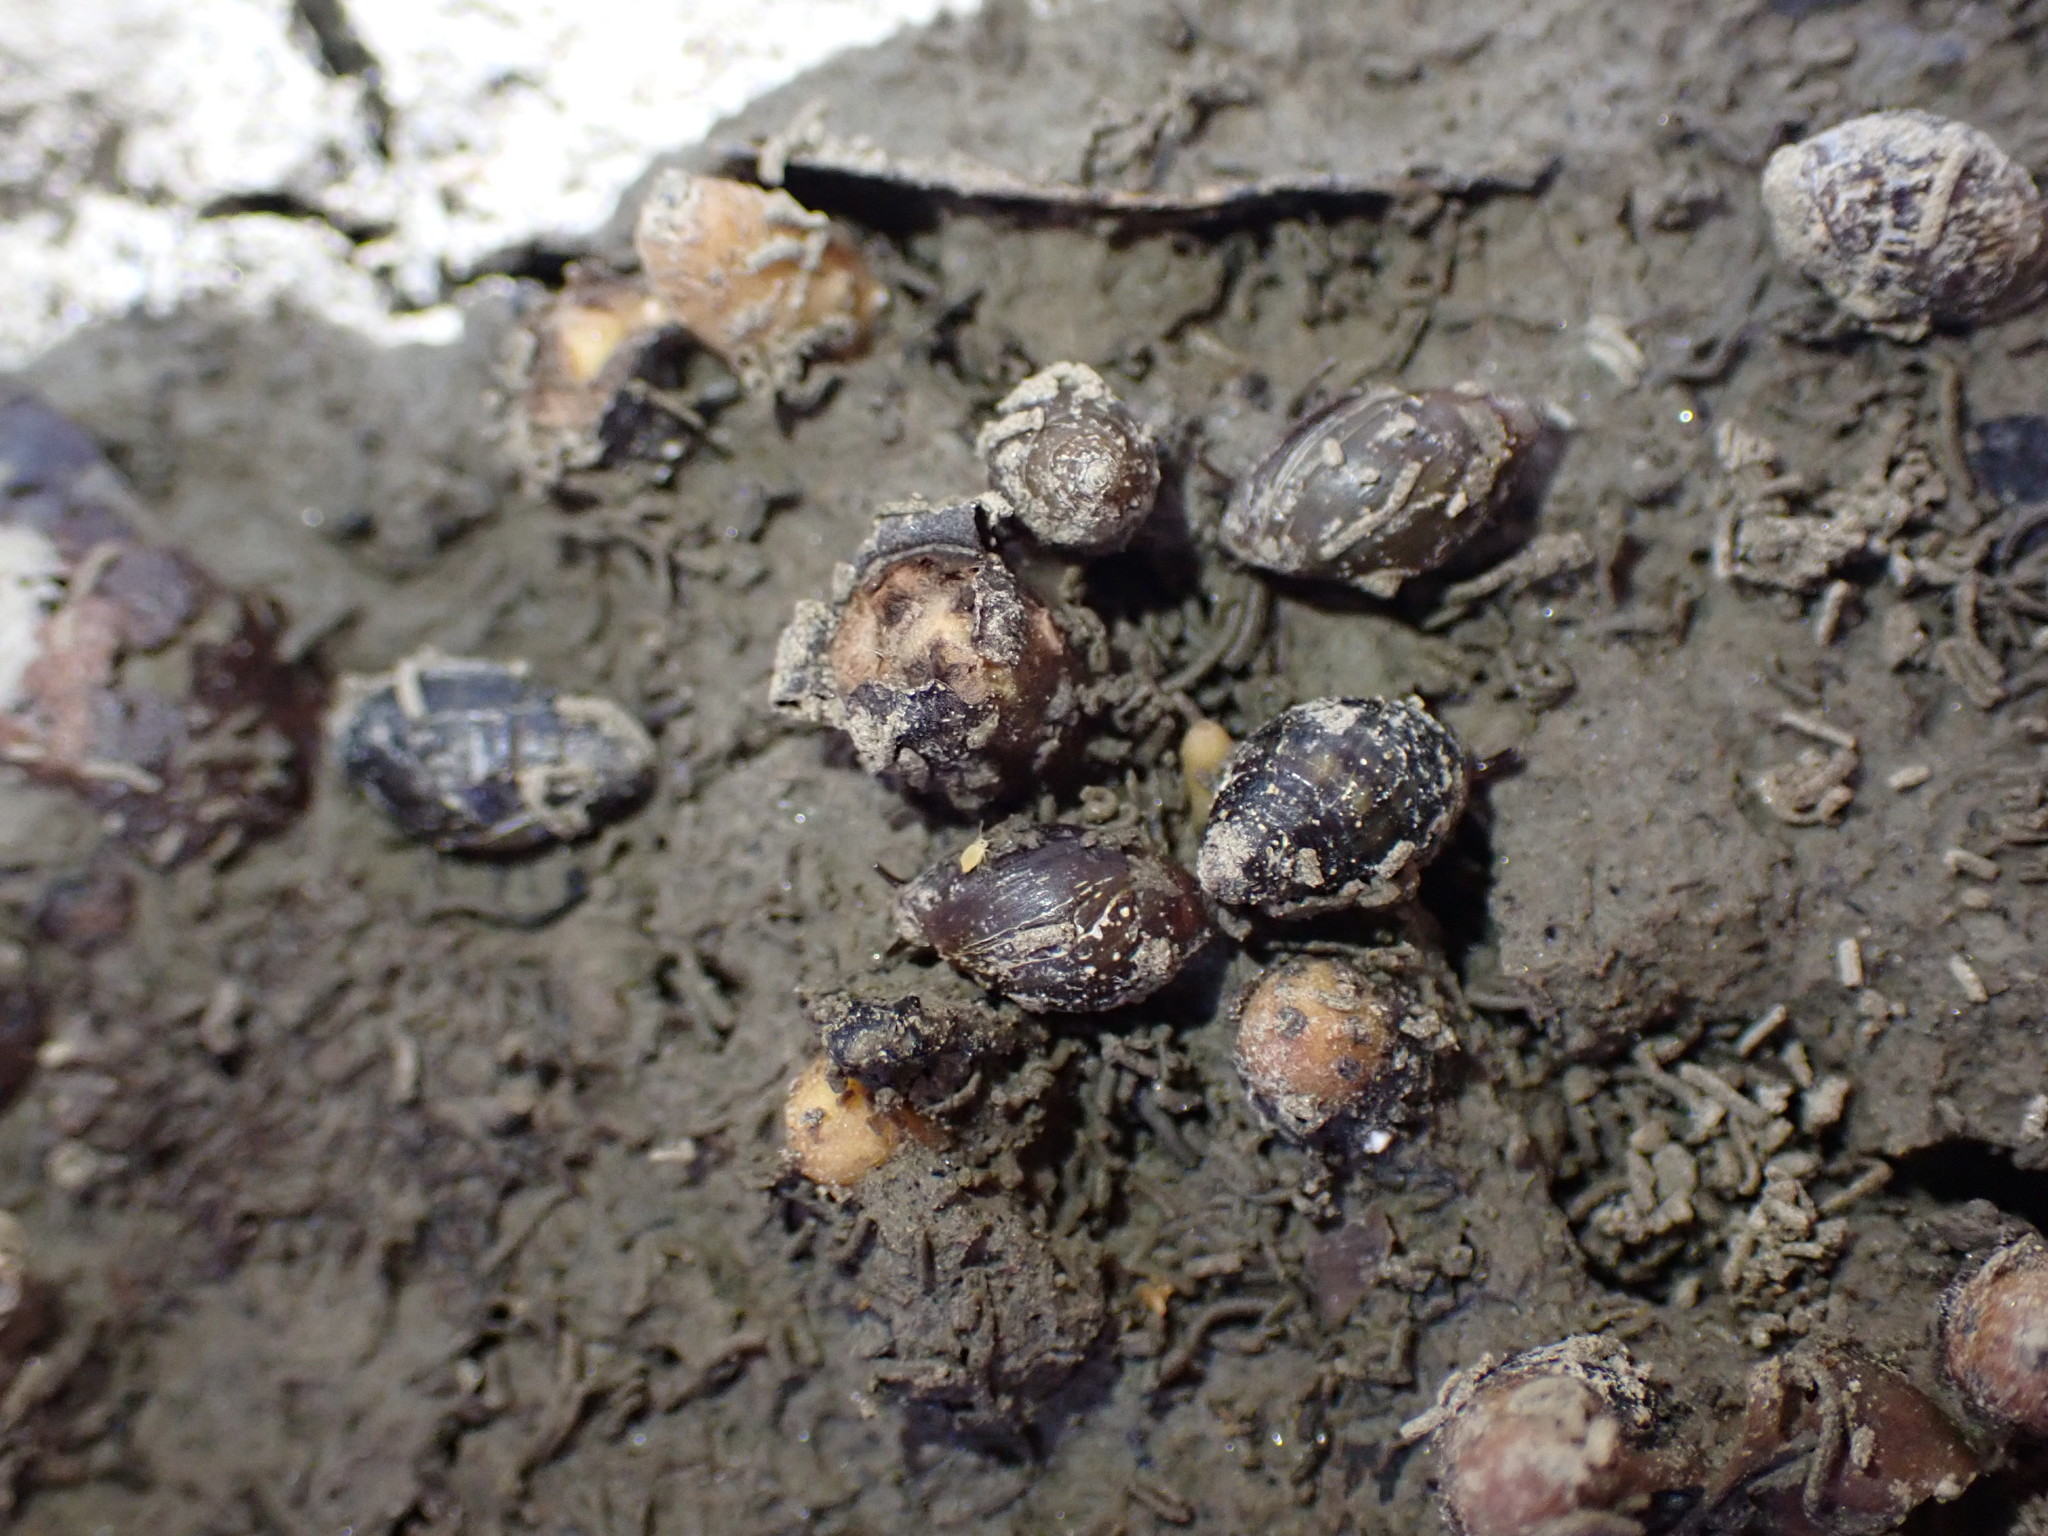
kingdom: Animalia
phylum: Mollusca
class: Gastropoda
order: Ellobiida
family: Ellobiidae
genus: Pleuroloba
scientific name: Pleuroloba costellaris
